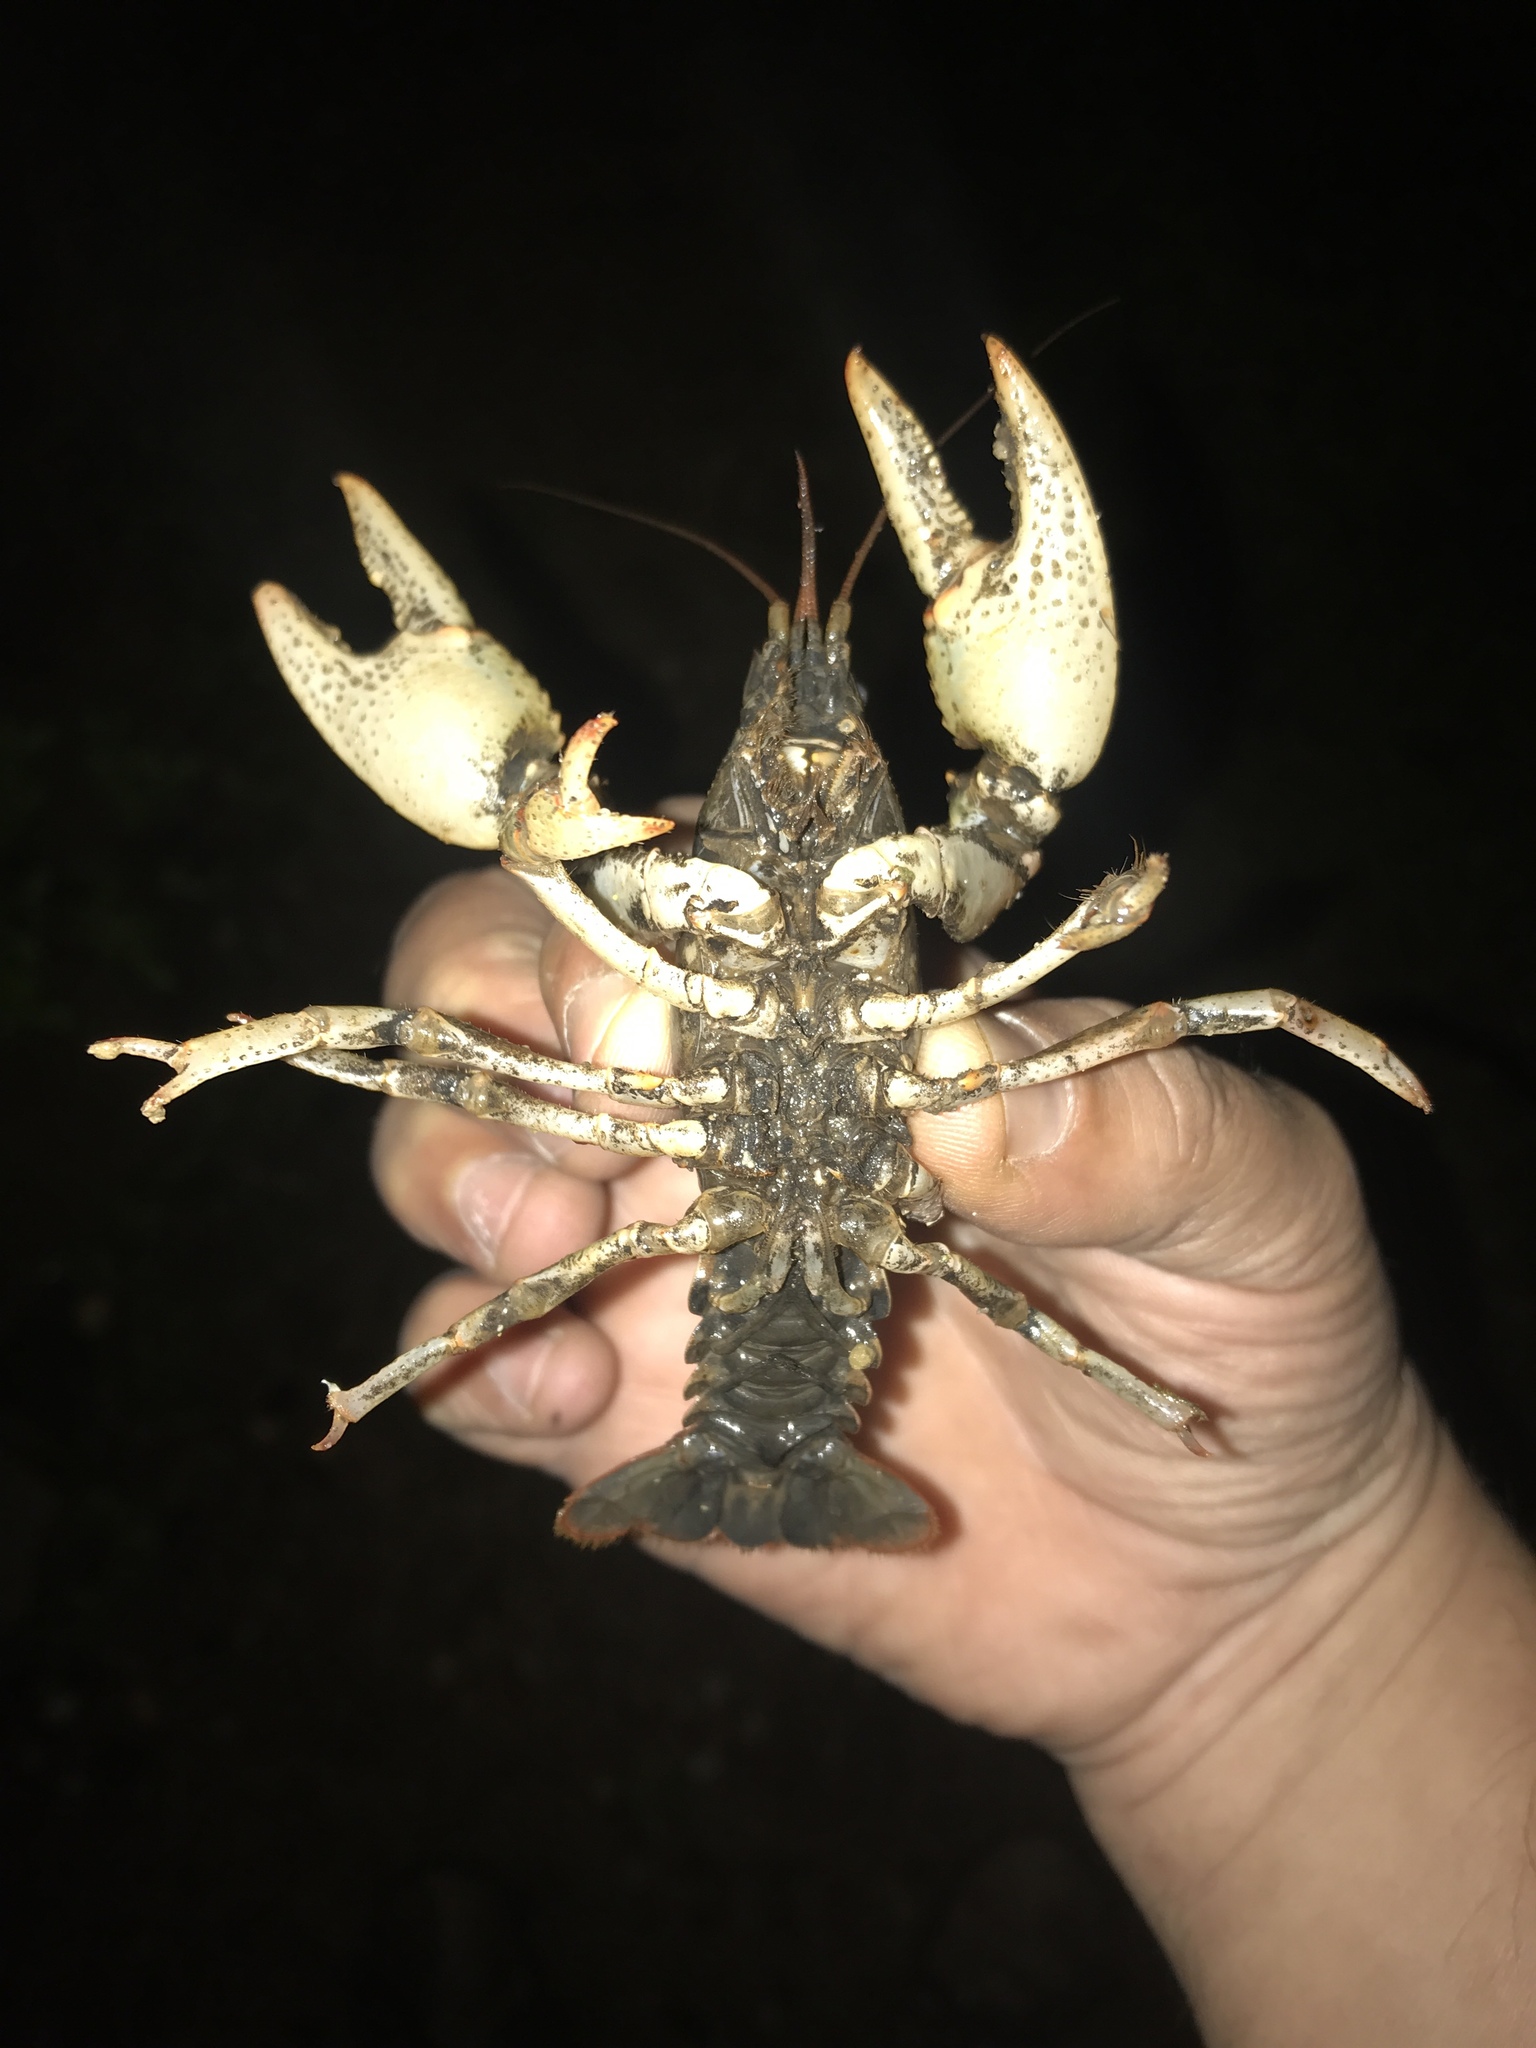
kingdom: Animalia
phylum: Arthropoda
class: Malacostraca
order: Decapoda
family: Cambaridae
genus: Lacunicambarus
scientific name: Lacunicambarus polychromatus
